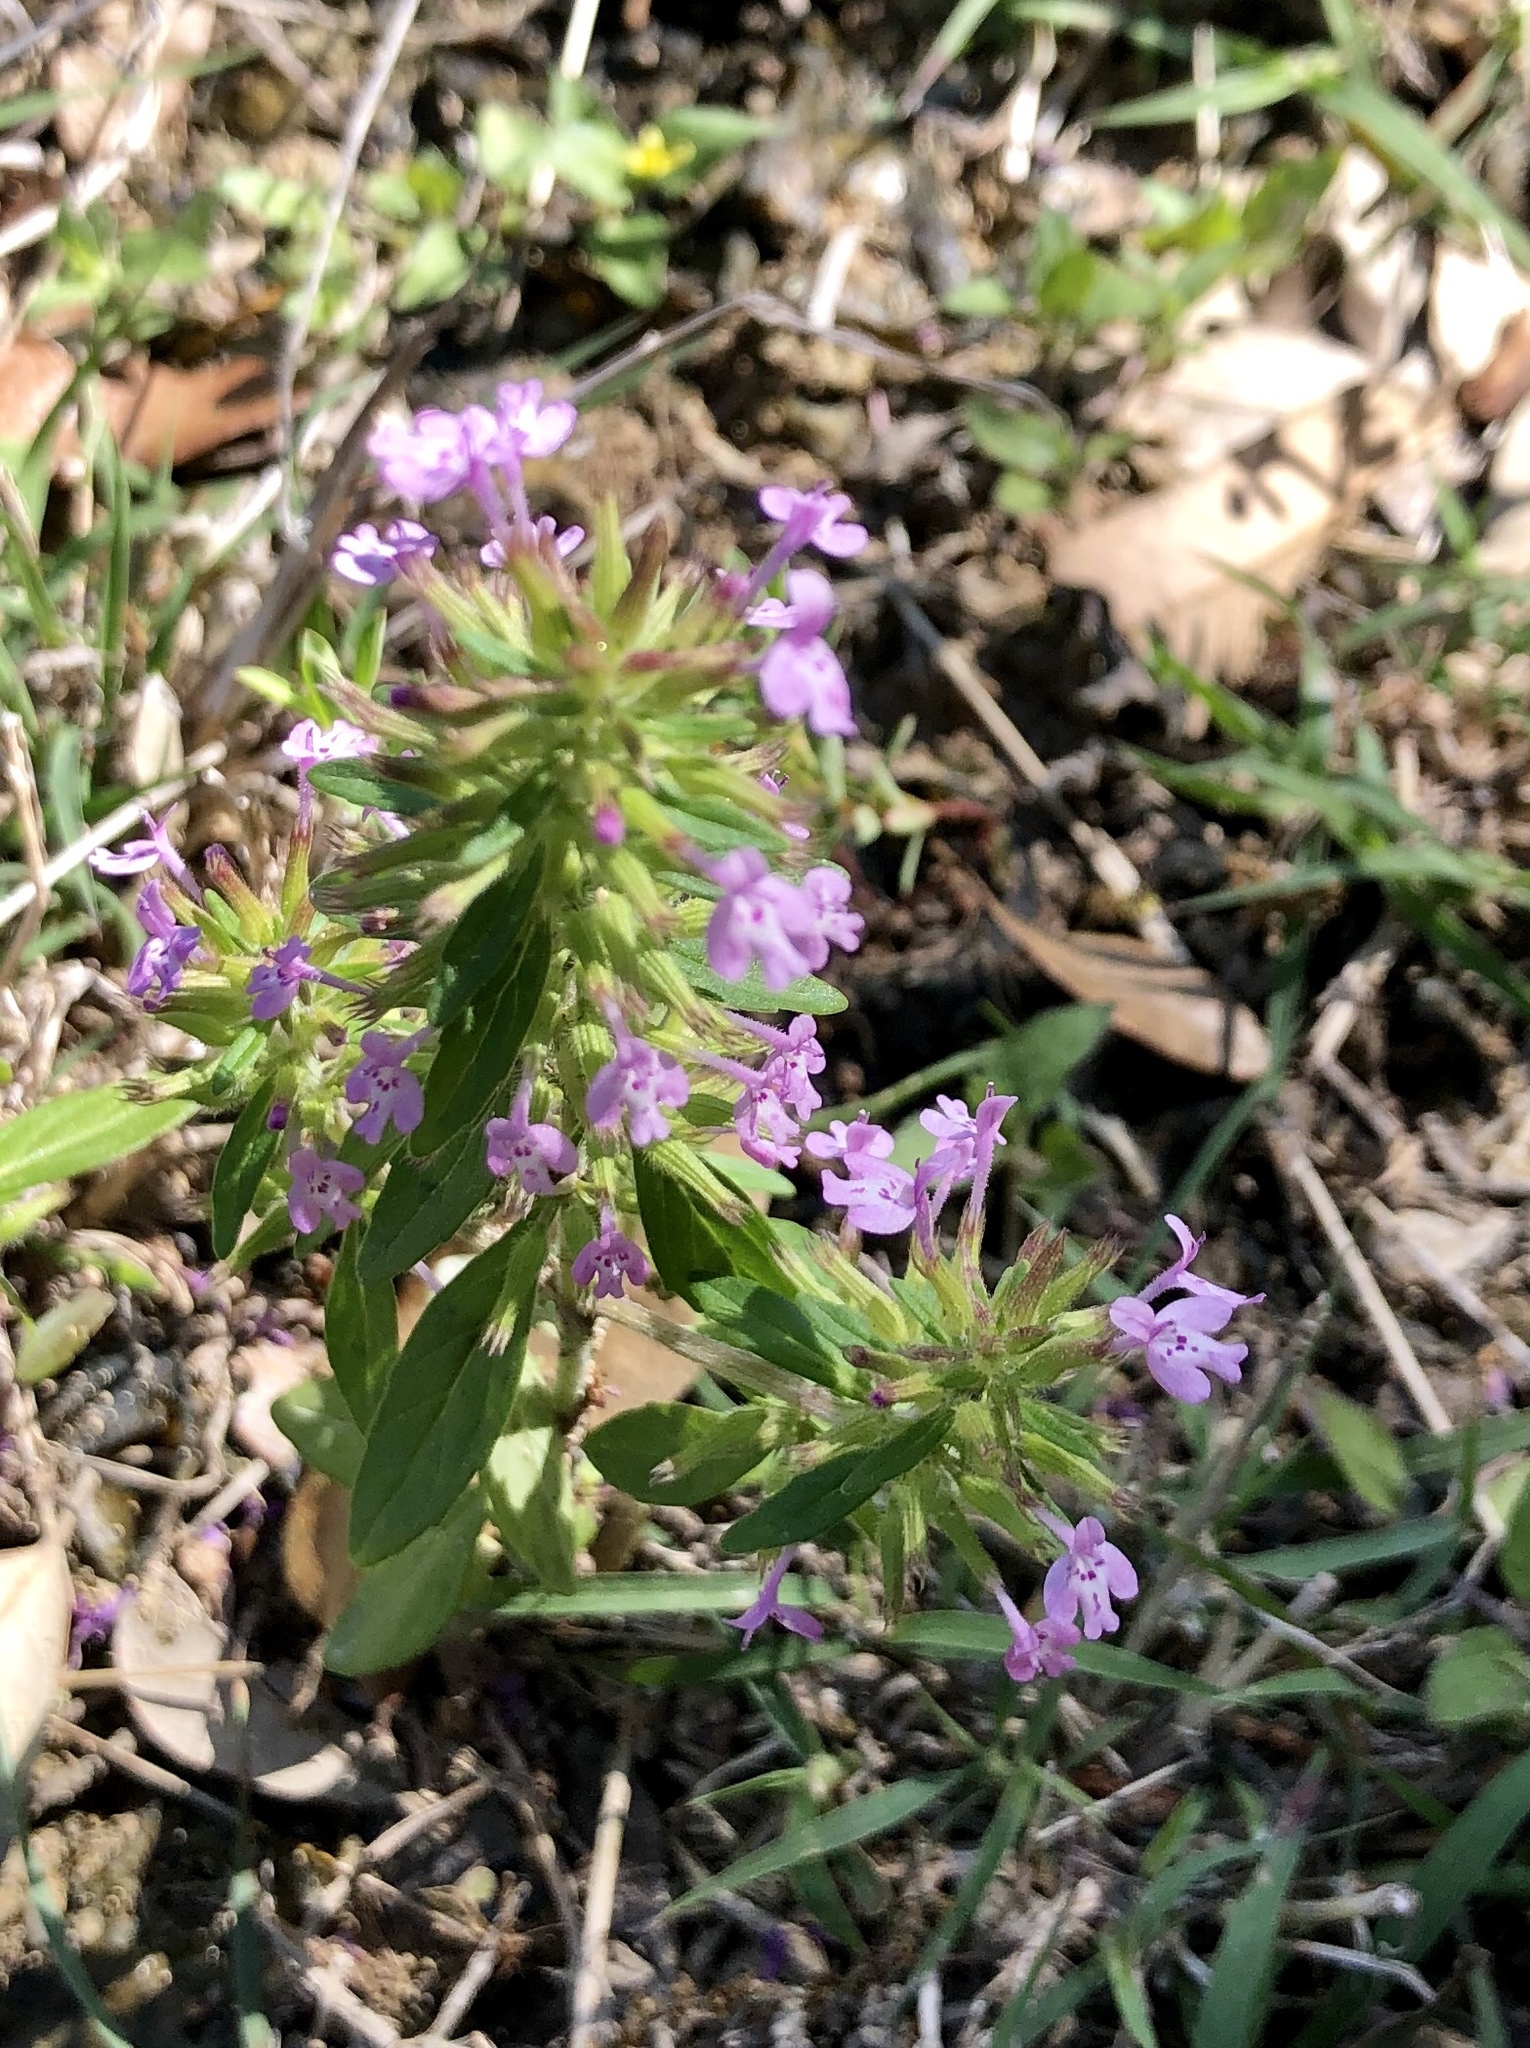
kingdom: Plantae
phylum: Tracheophyta
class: Magnoliopsida
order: Lamiales
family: Lamiaceae
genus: Hedeoma
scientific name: Hedeoma acinoides
